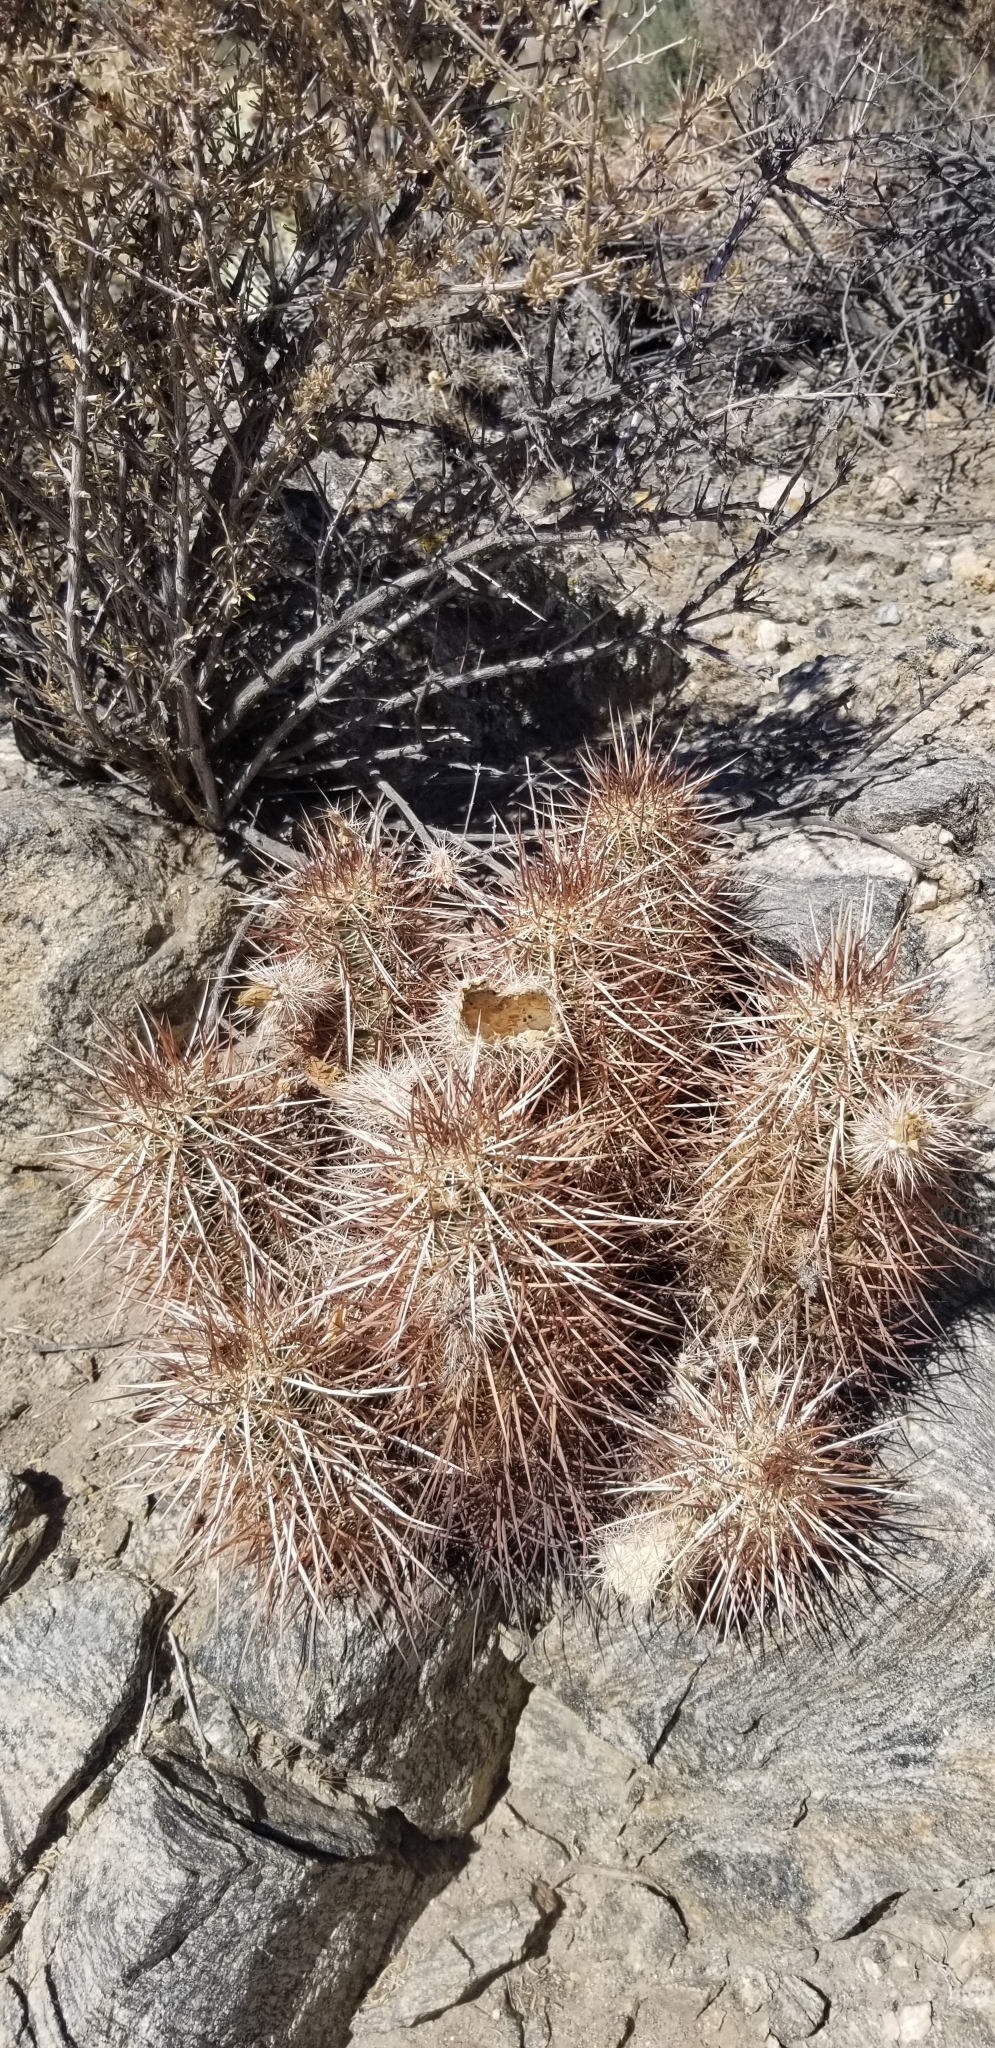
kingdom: Plantae
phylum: Tracheophyta
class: Magnoliopsida
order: Caryophyllales
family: Cactaceae
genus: Echinocereus
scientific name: Echinocereus engelmannii
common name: Engelmann's hedgehog cactus
